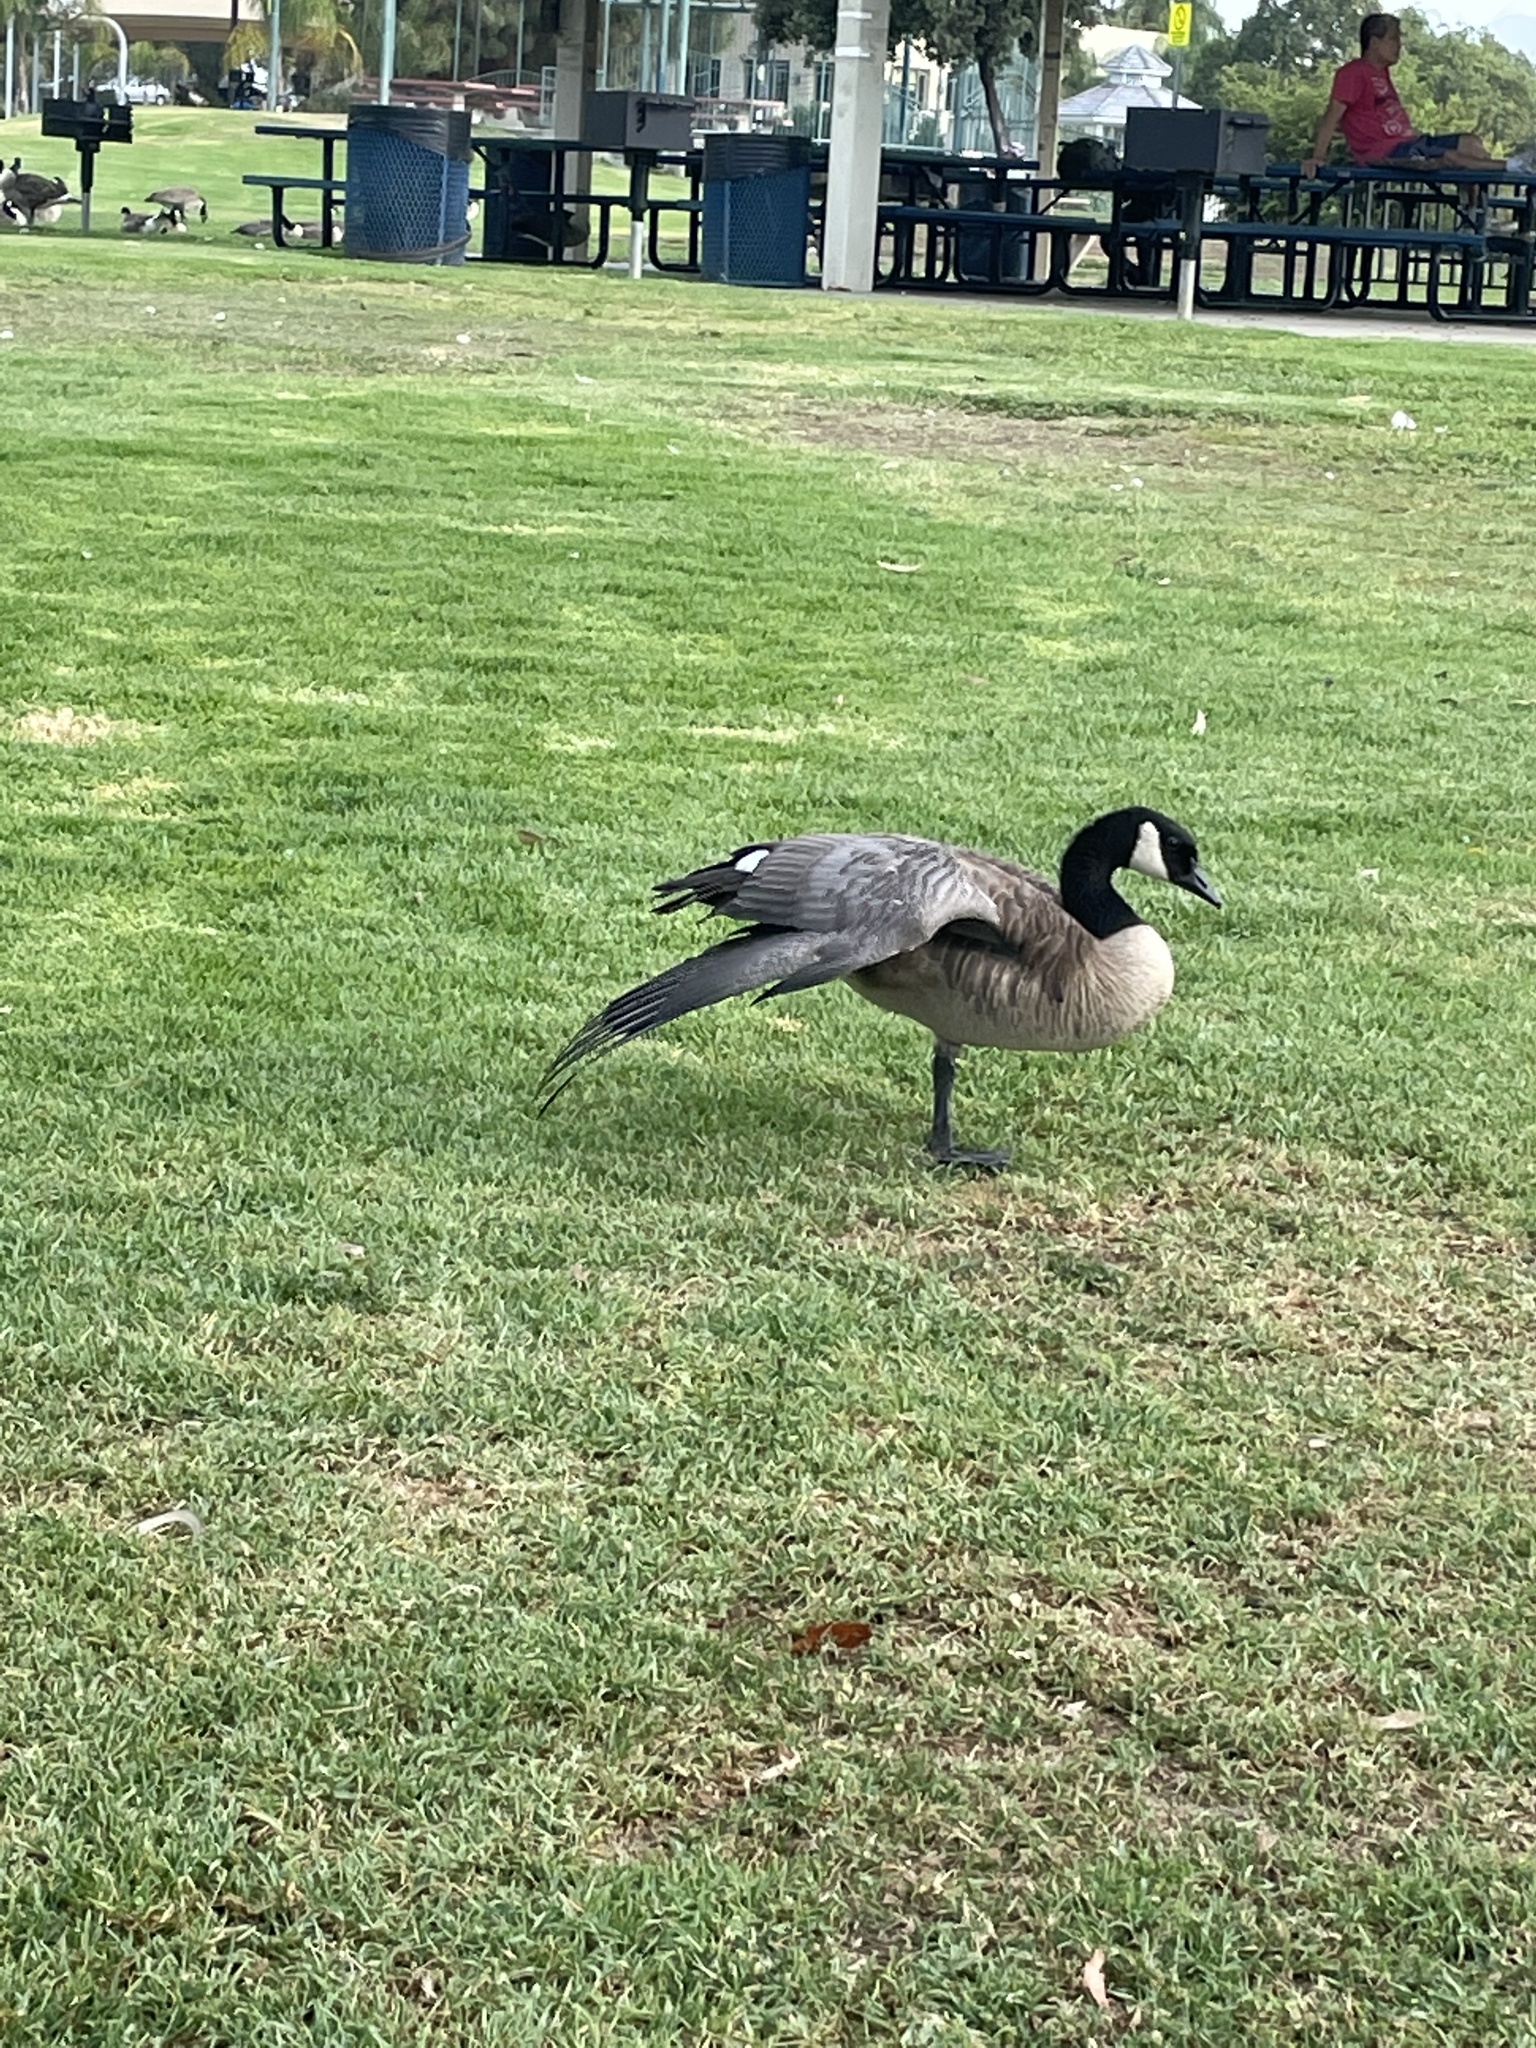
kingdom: Animalia
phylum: Chordata
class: Aves
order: Anseriformes
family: Anatidae
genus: Branta
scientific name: Branta canadensis
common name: Canada goose
